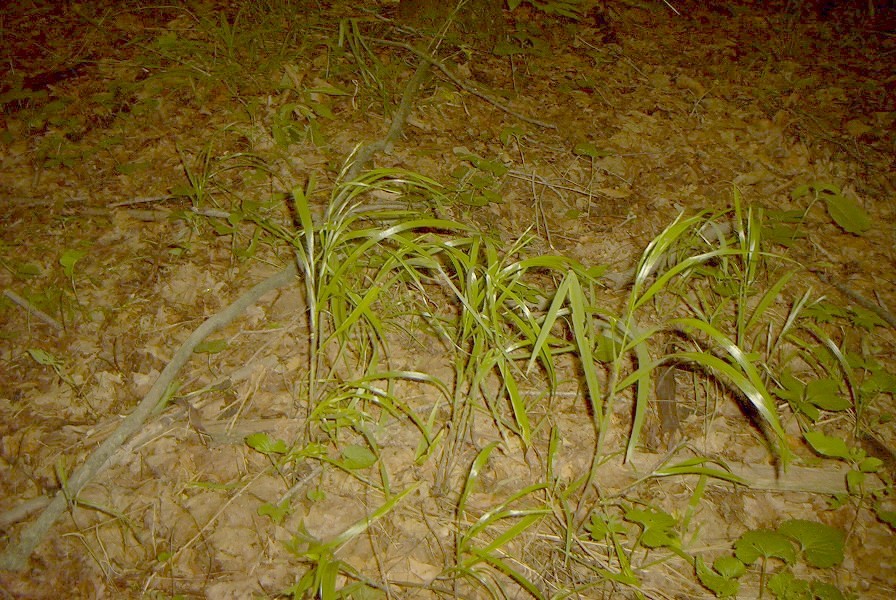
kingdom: Plantae
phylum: Tracheophyta
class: Liliopsida
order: Poales
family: Poaceae
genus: Bromus
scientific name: Bromus nottowayanus
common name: Nottoway valley brome
